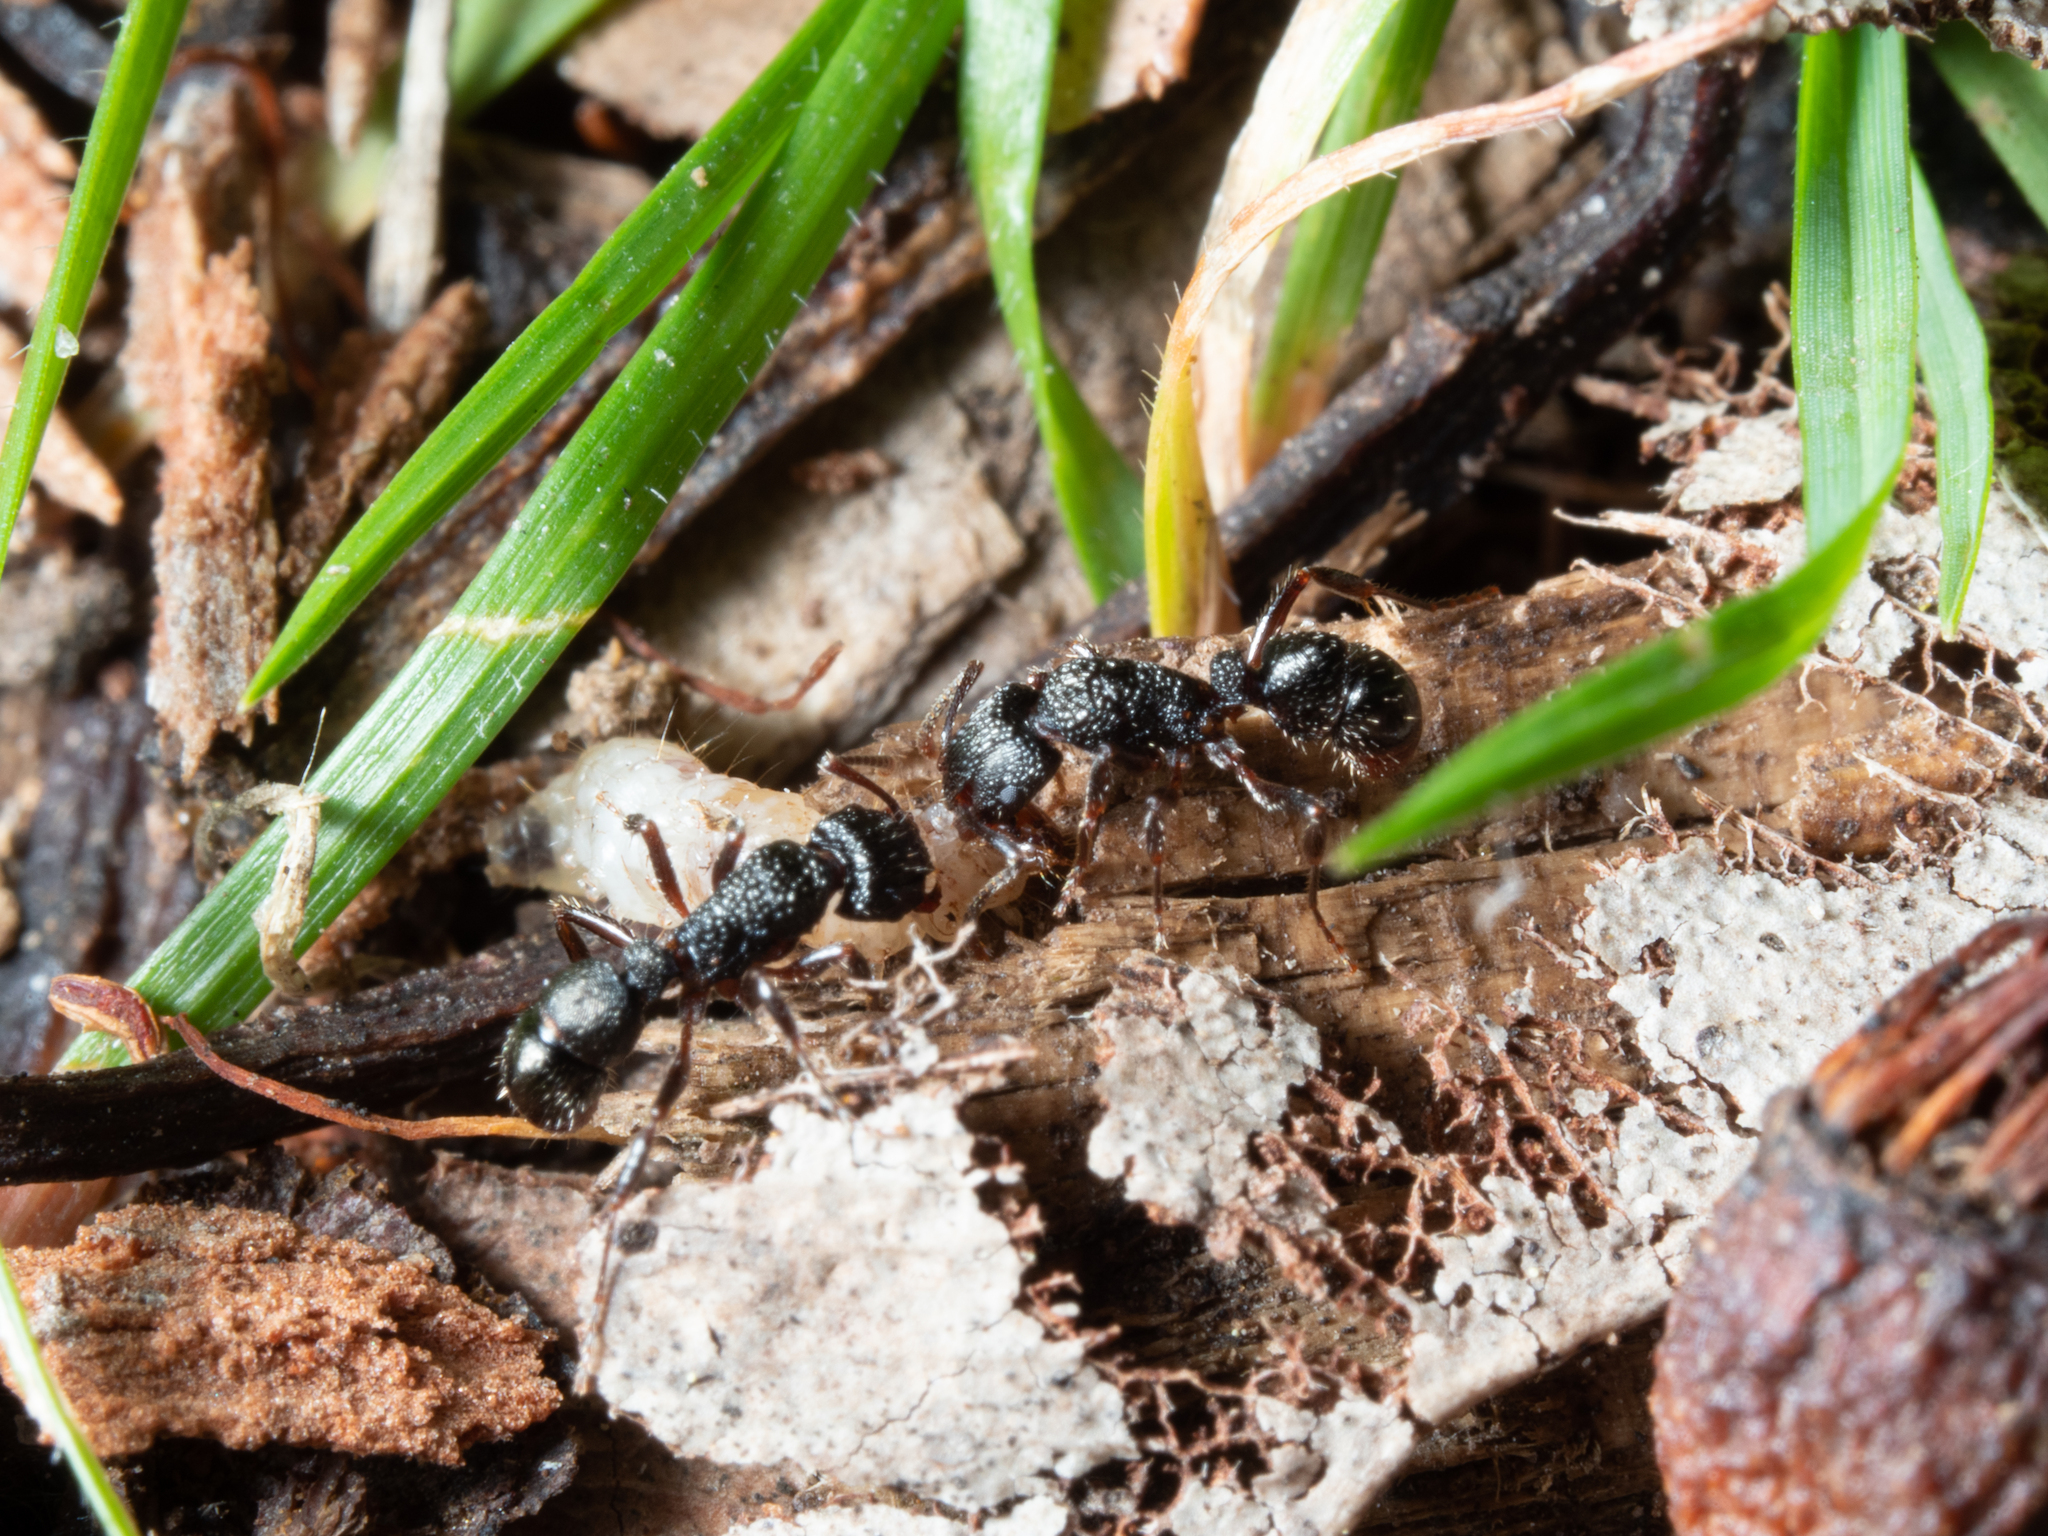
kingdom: Animalia
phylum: Arthropoda
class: Insecta
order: Hymenoptera
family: Formicidae
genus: Rhytidoponera
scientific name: Rhytidoponera victoriae
